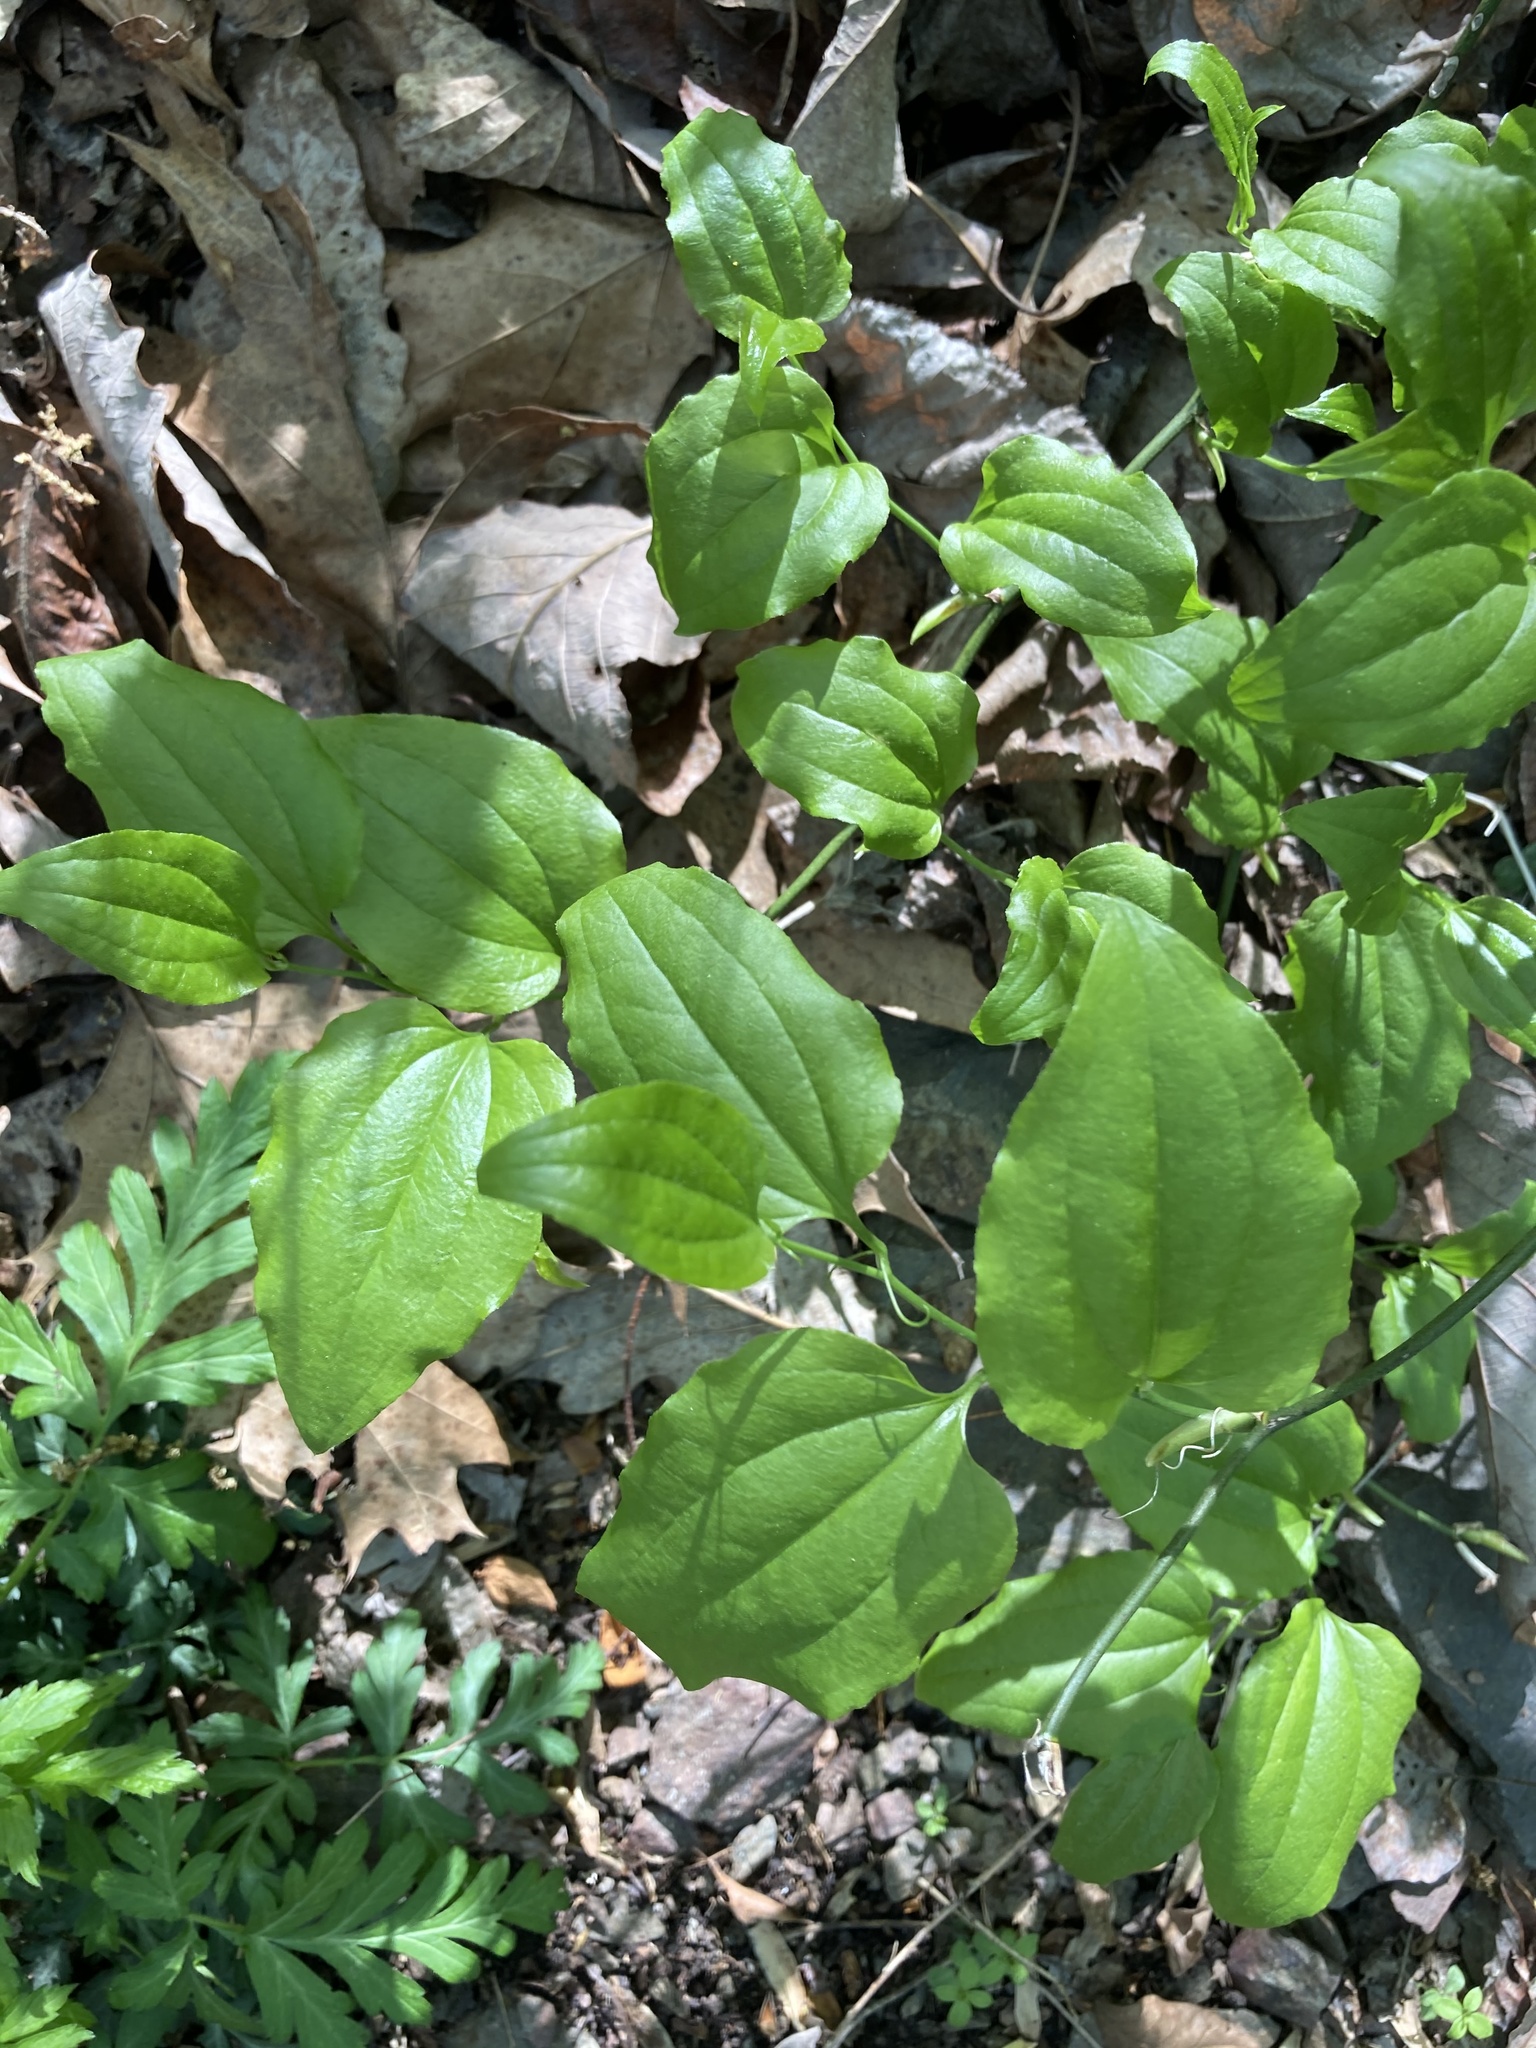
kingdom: Plantae
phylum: Tracheophyta
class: Liliopsida
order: Liliales
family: Smilacaceae
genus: Smilax
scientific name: Smilax tamnoides
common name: Hellfetter
